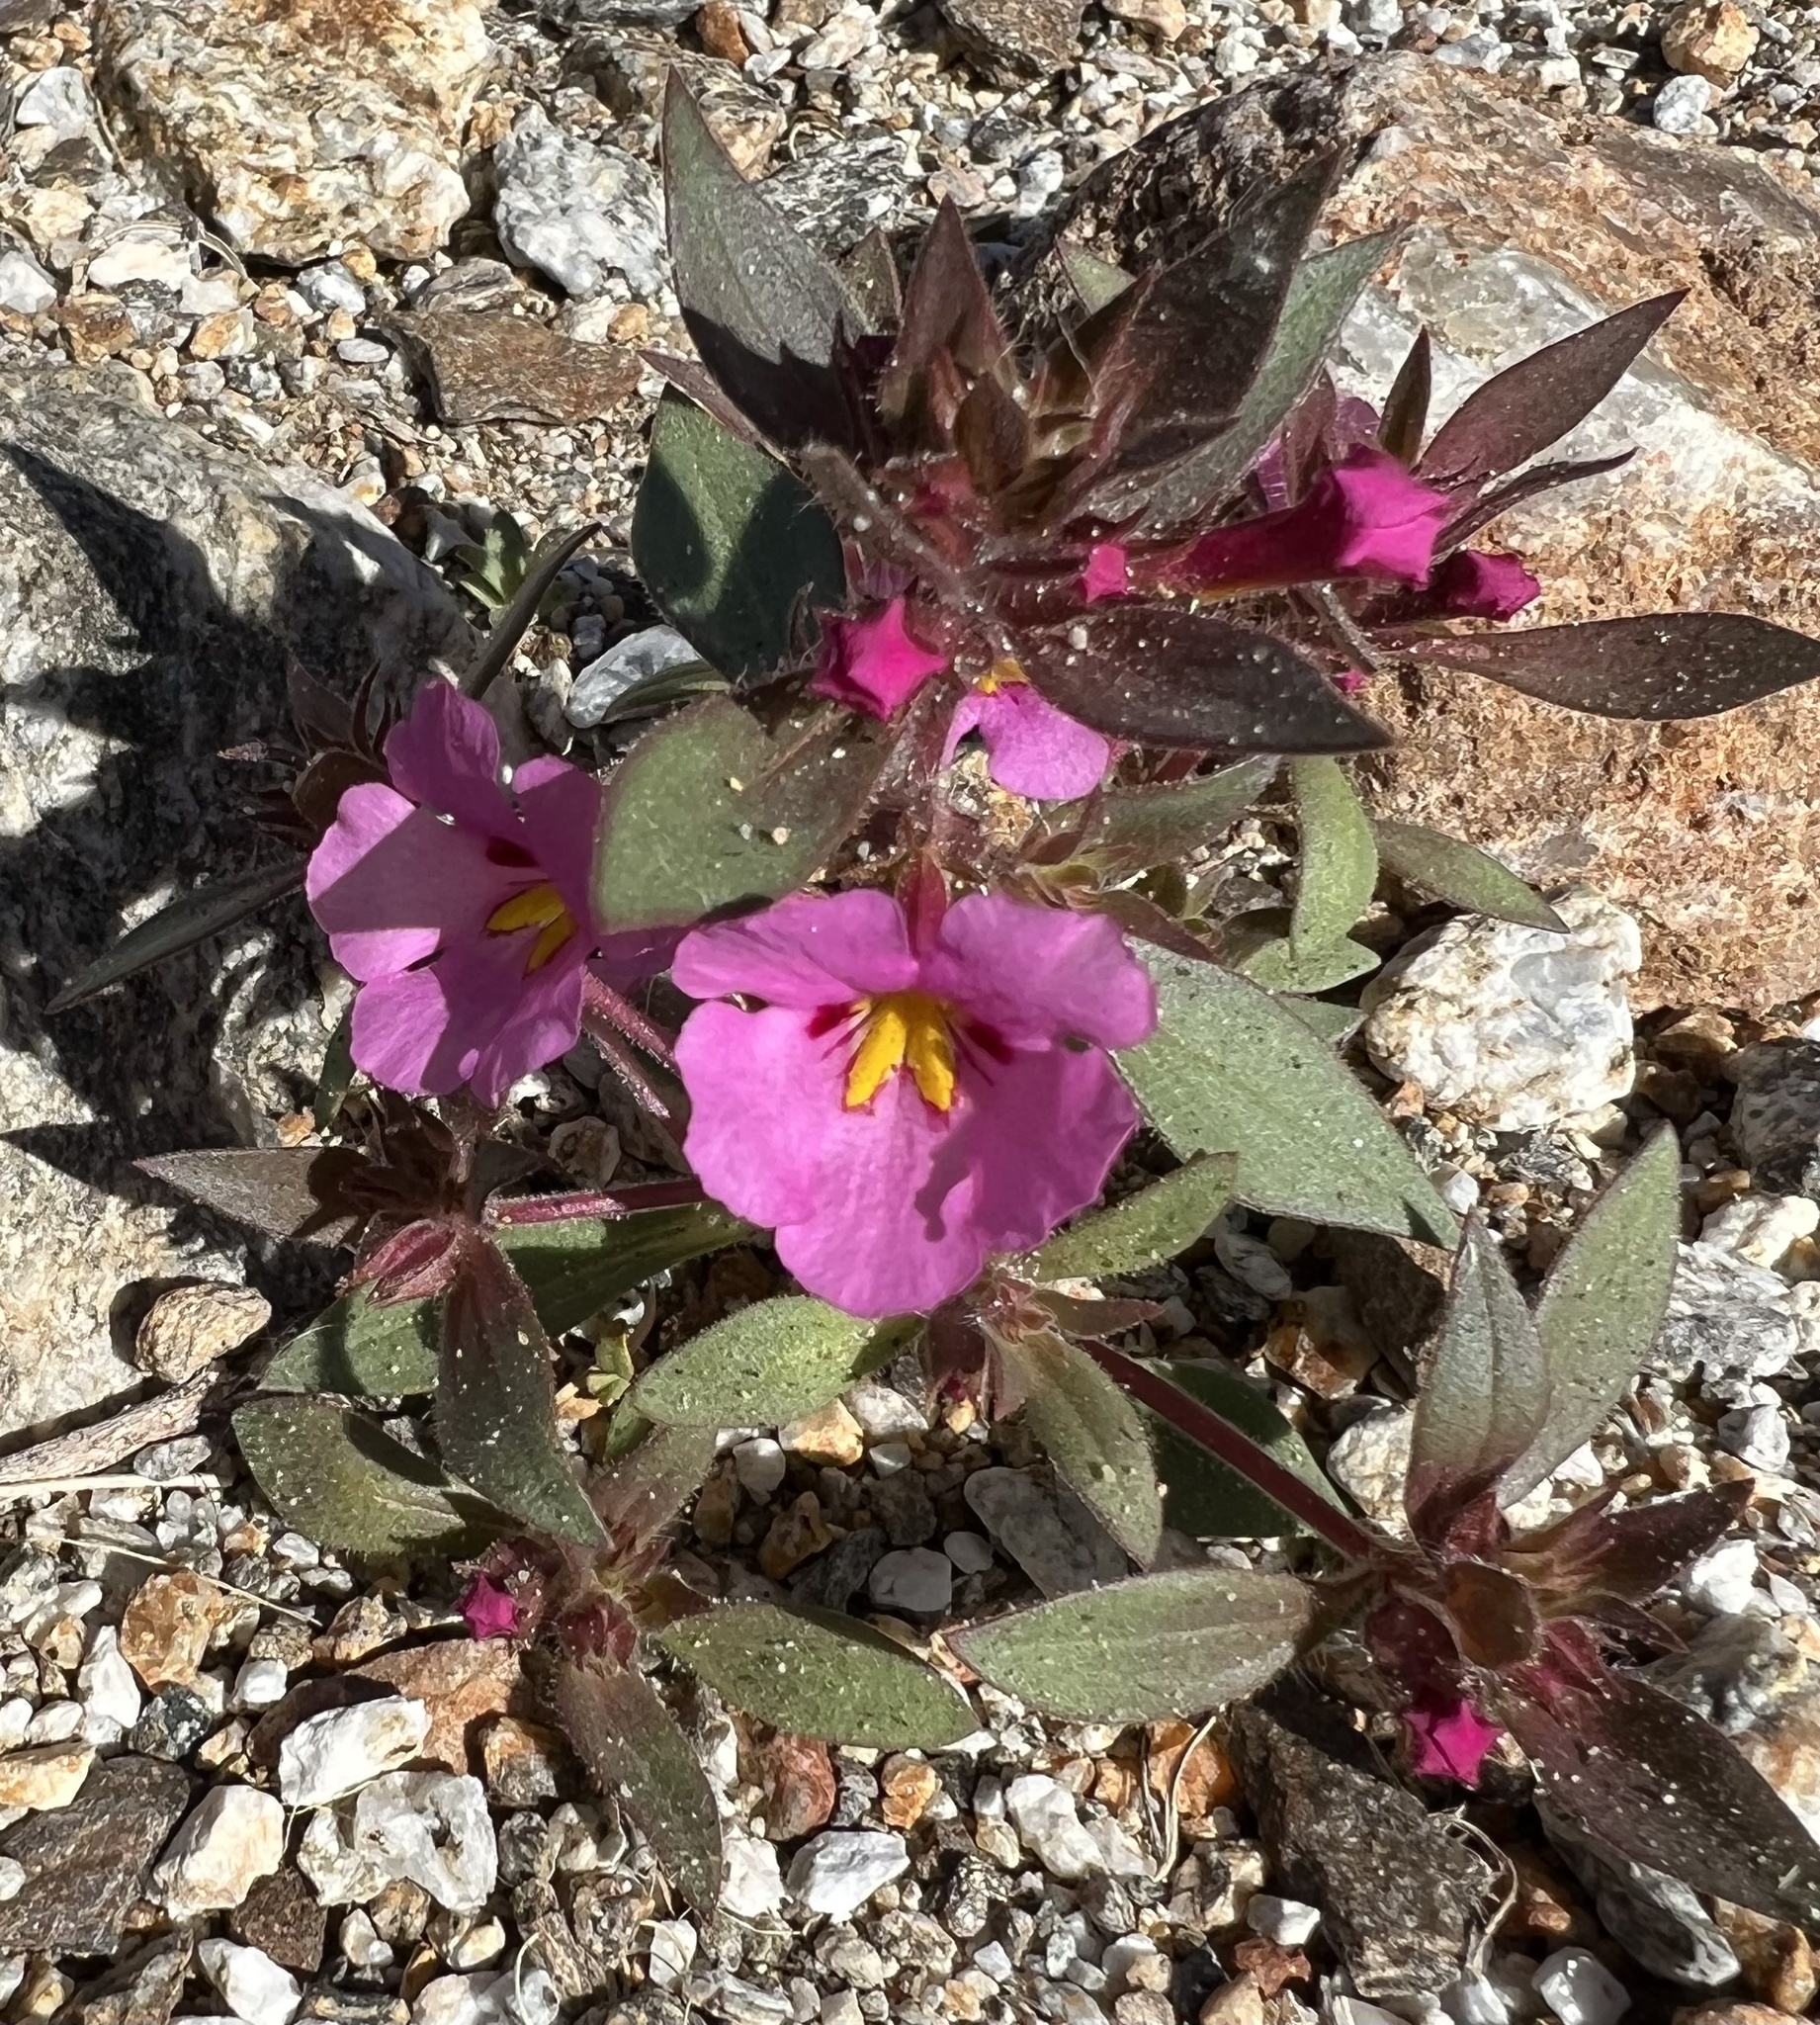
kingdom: Plantae
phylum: Tracheophyta
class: Magnoliopsida
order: Lamiales
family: Phrymaceae
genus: Diplacus
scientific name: Diplacus bigelovii
